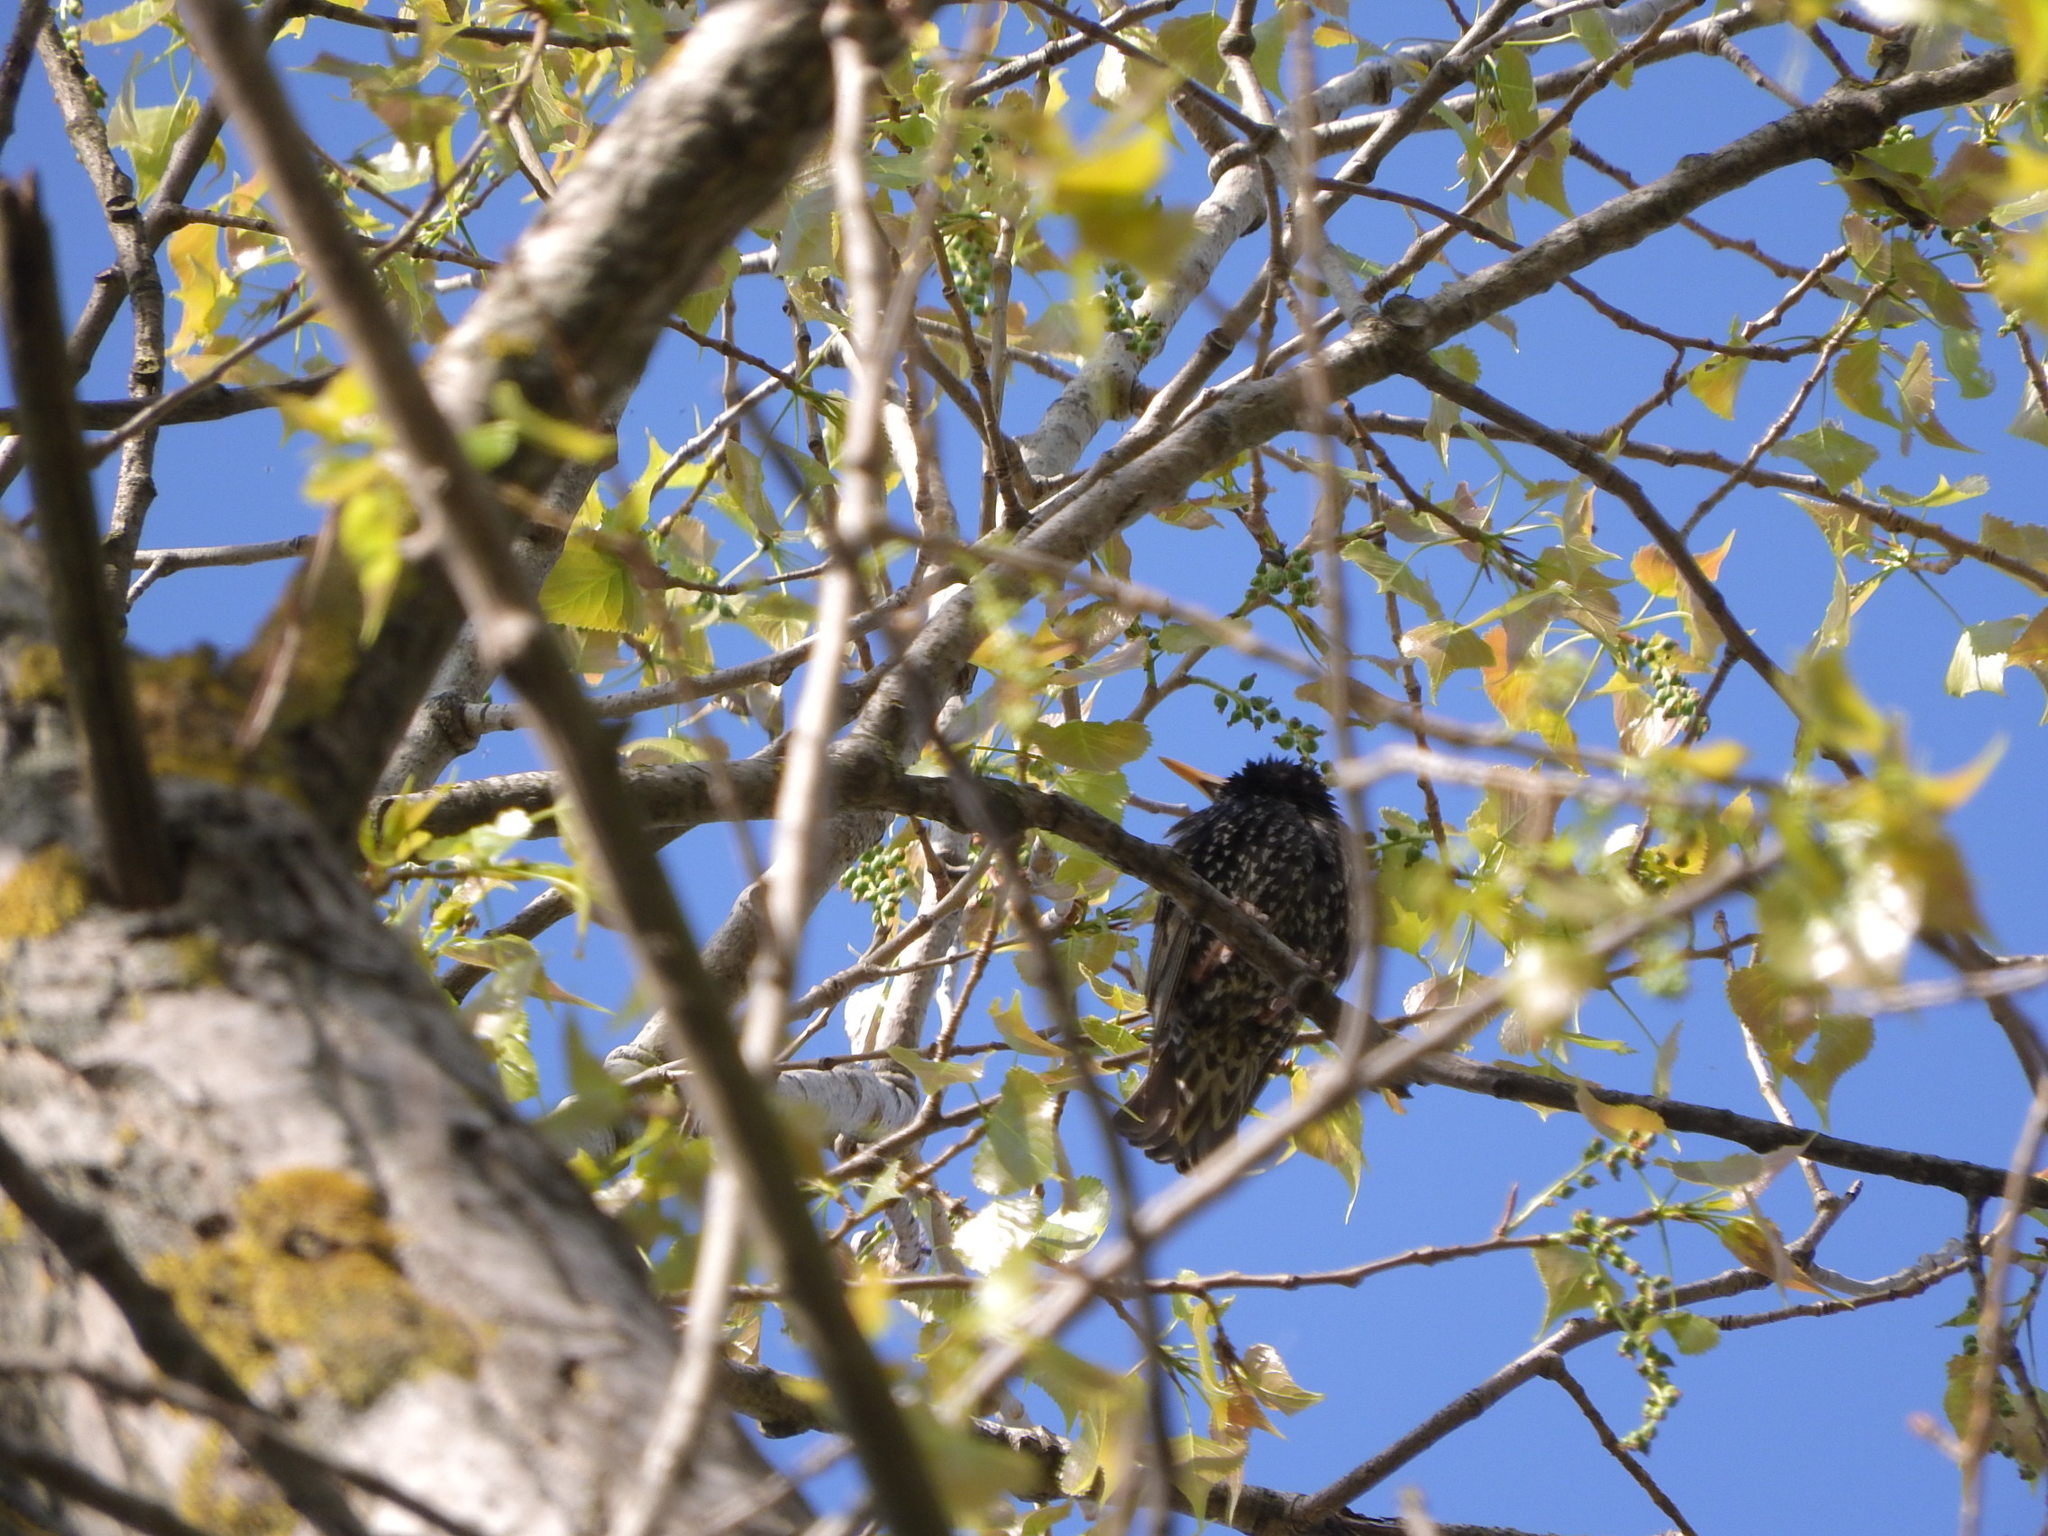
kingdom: Animalia
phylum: Chordata
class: Aves
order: Passeriformes
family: Sturnidae
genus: Sturnus
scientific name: Sturnus vulgaris
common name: Common starling
